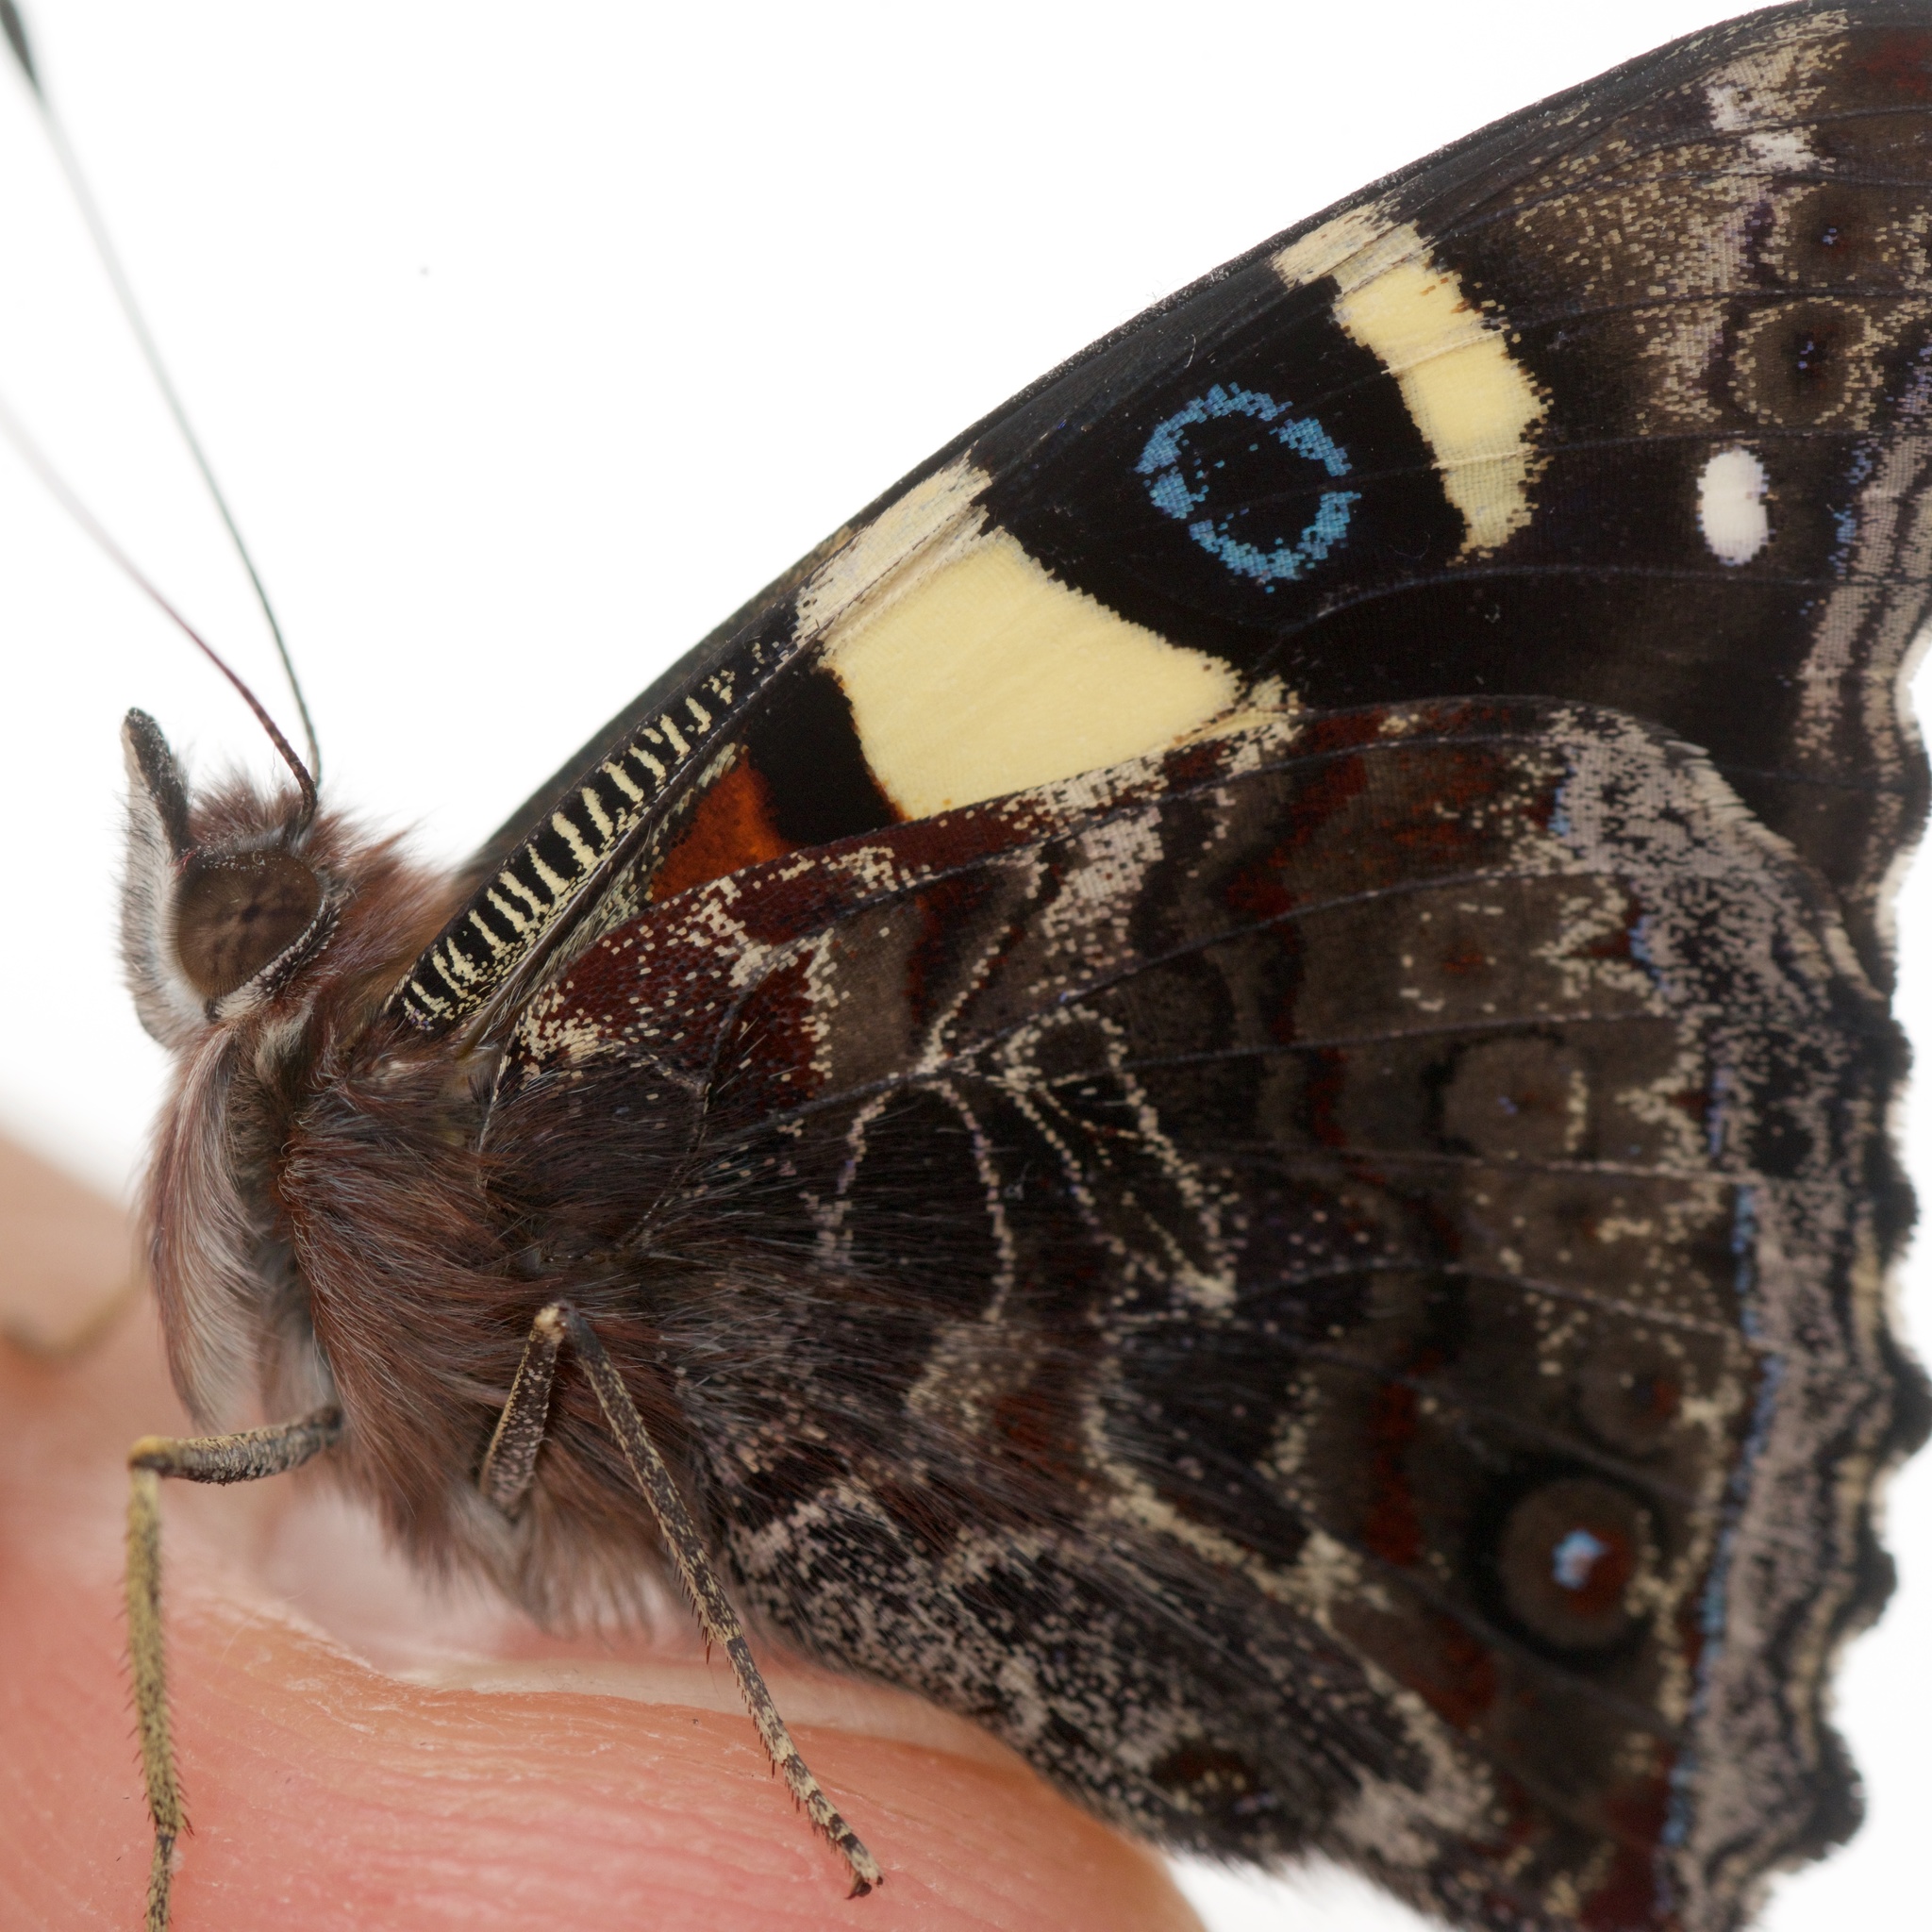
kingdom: Animalia
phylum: Arthropoda
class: Insecta
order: Lepidoptera
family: Nymphalidae
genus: Vanessa
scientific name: Vanessa itea
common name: Yellow admiral
